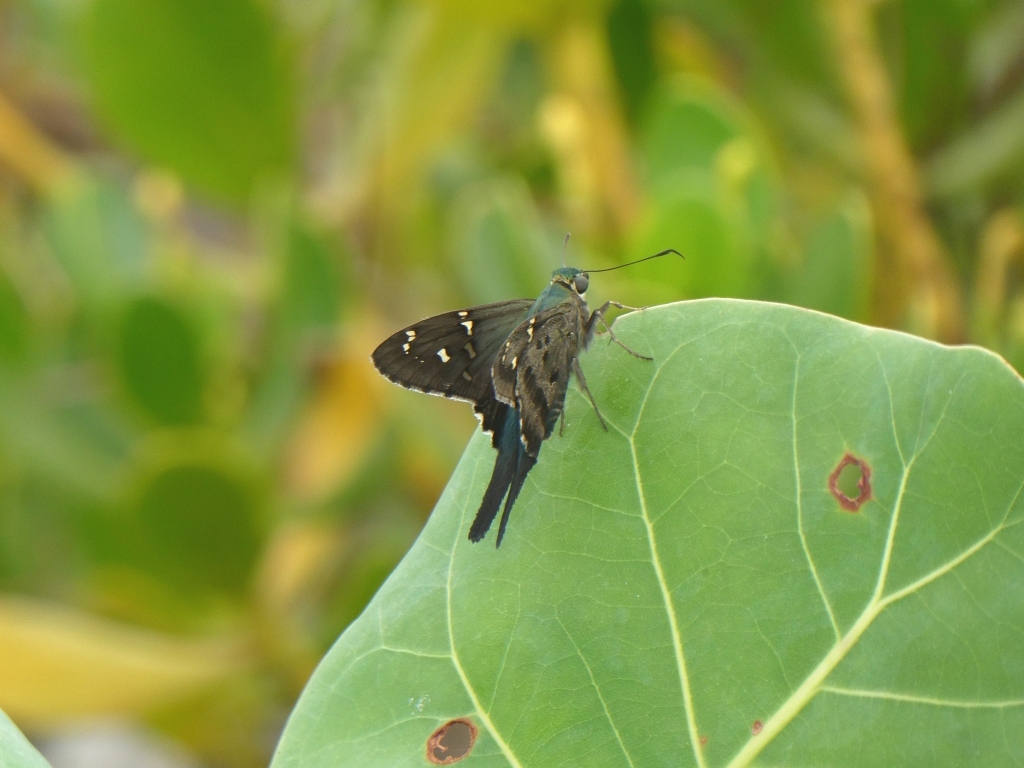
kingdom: Animalia
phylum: Arthropoda
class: Insecta
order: Lepidoptera
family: Hesperiidae
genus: Urbanus
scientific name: Urbanus proteus
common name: Long-tailed skipper
